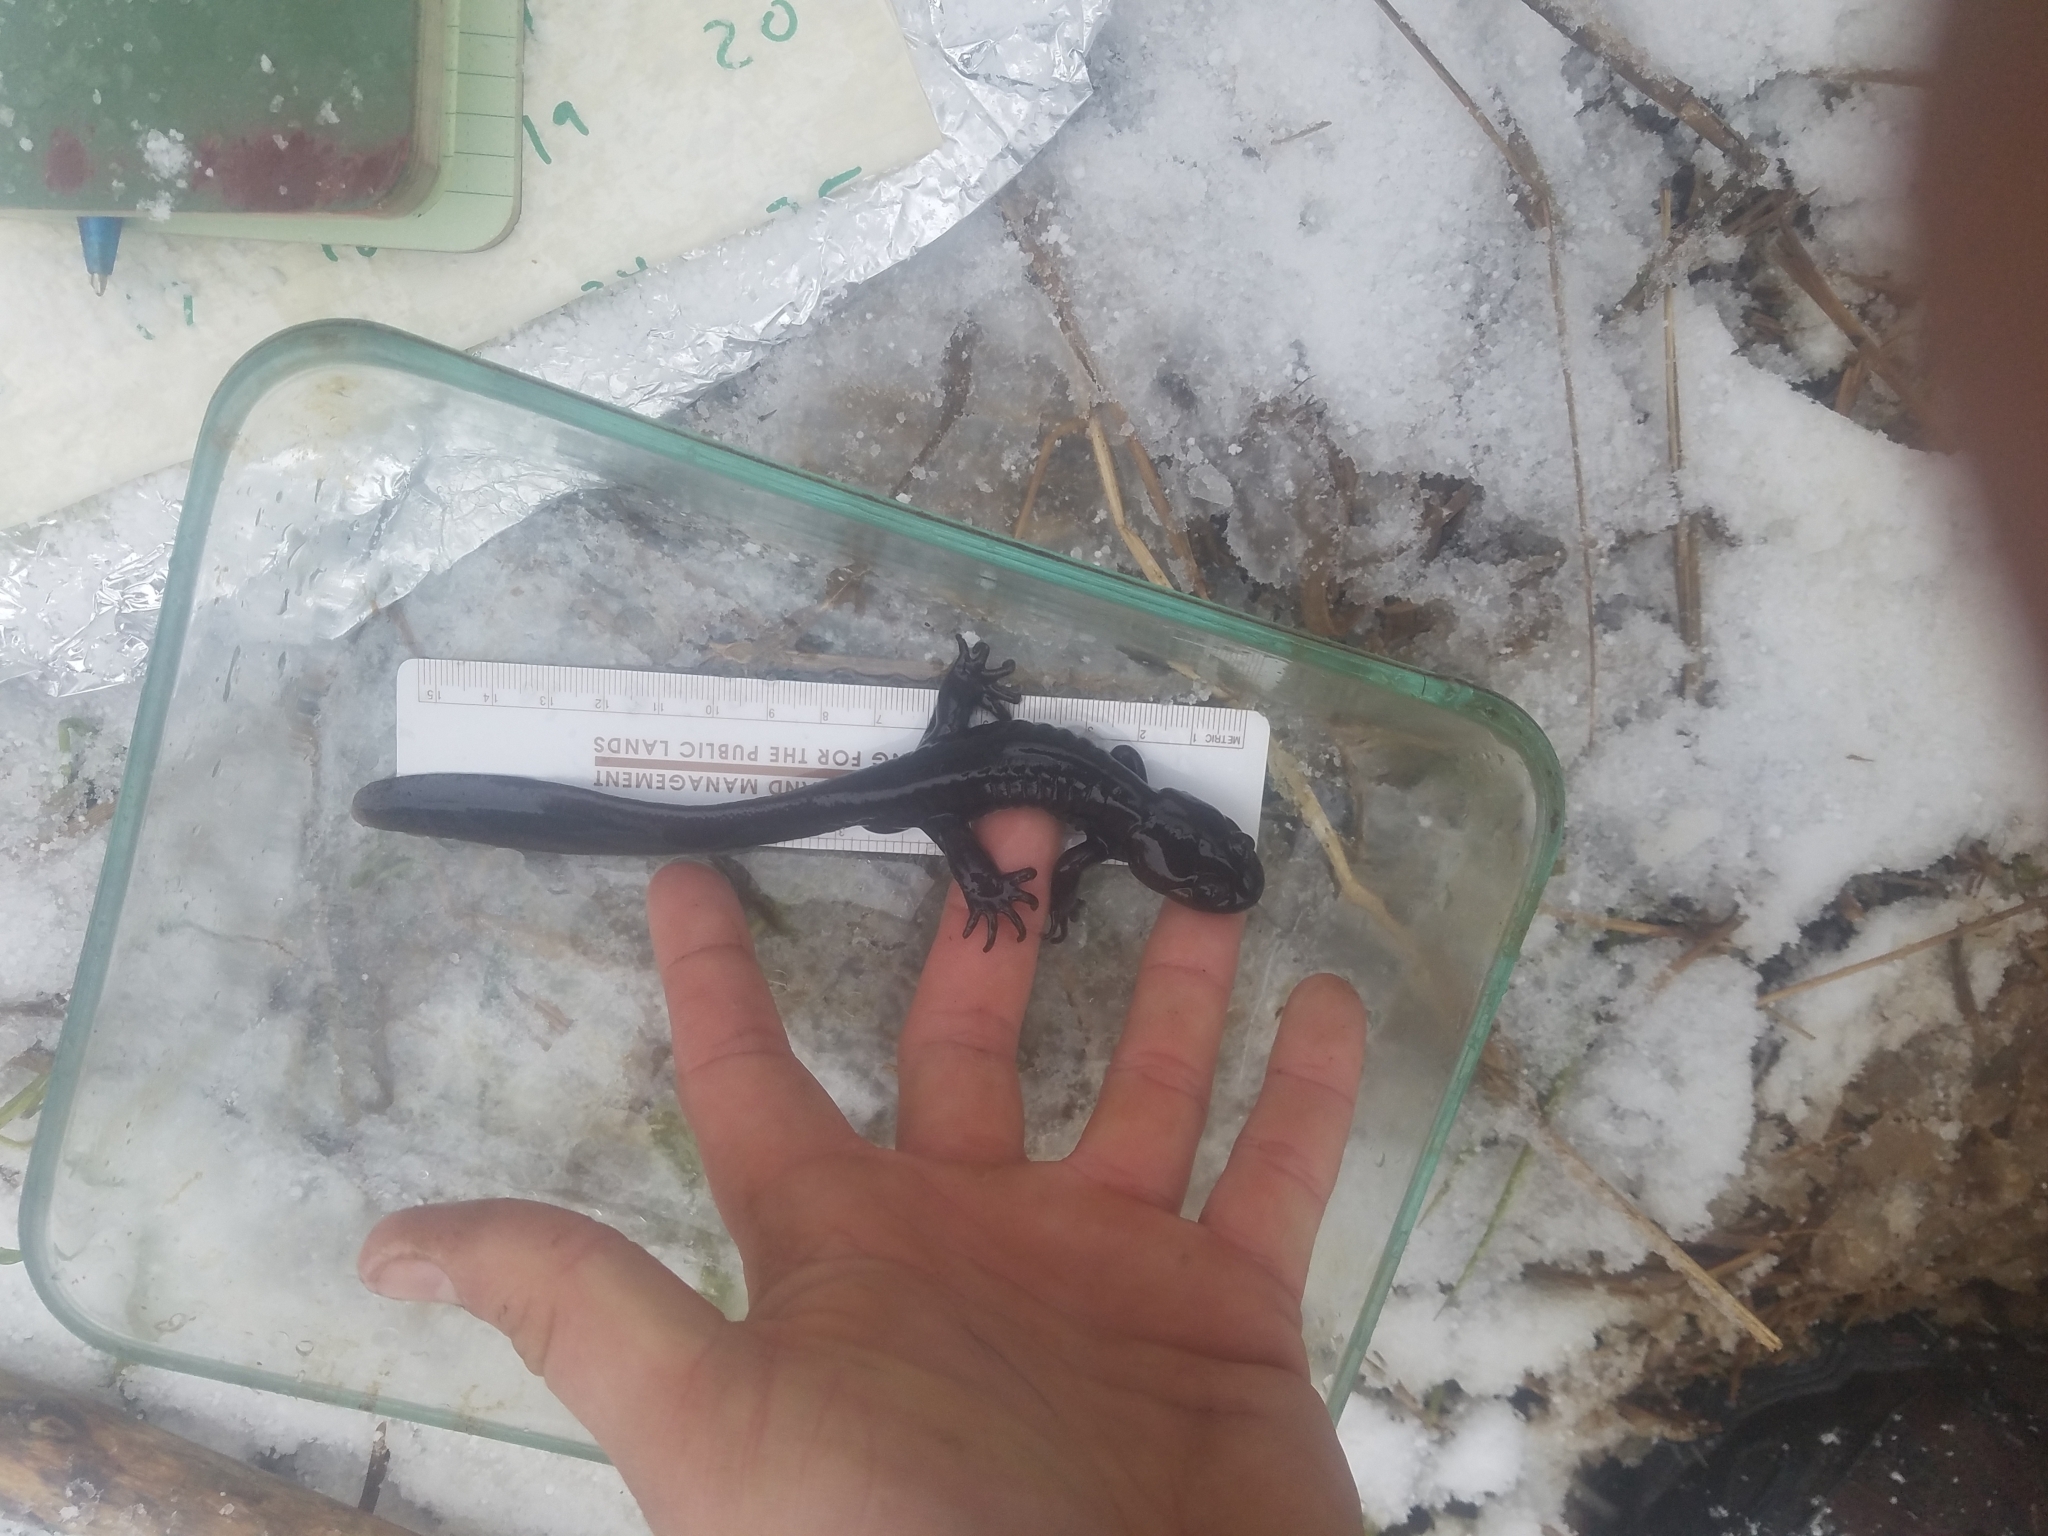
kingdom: Animalia
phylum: Chordata
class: Amphibia
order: Caudata
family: Ambystomatidae
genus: Ambystoma
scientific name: Ambystoma gracile
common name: Northwestern salamander
